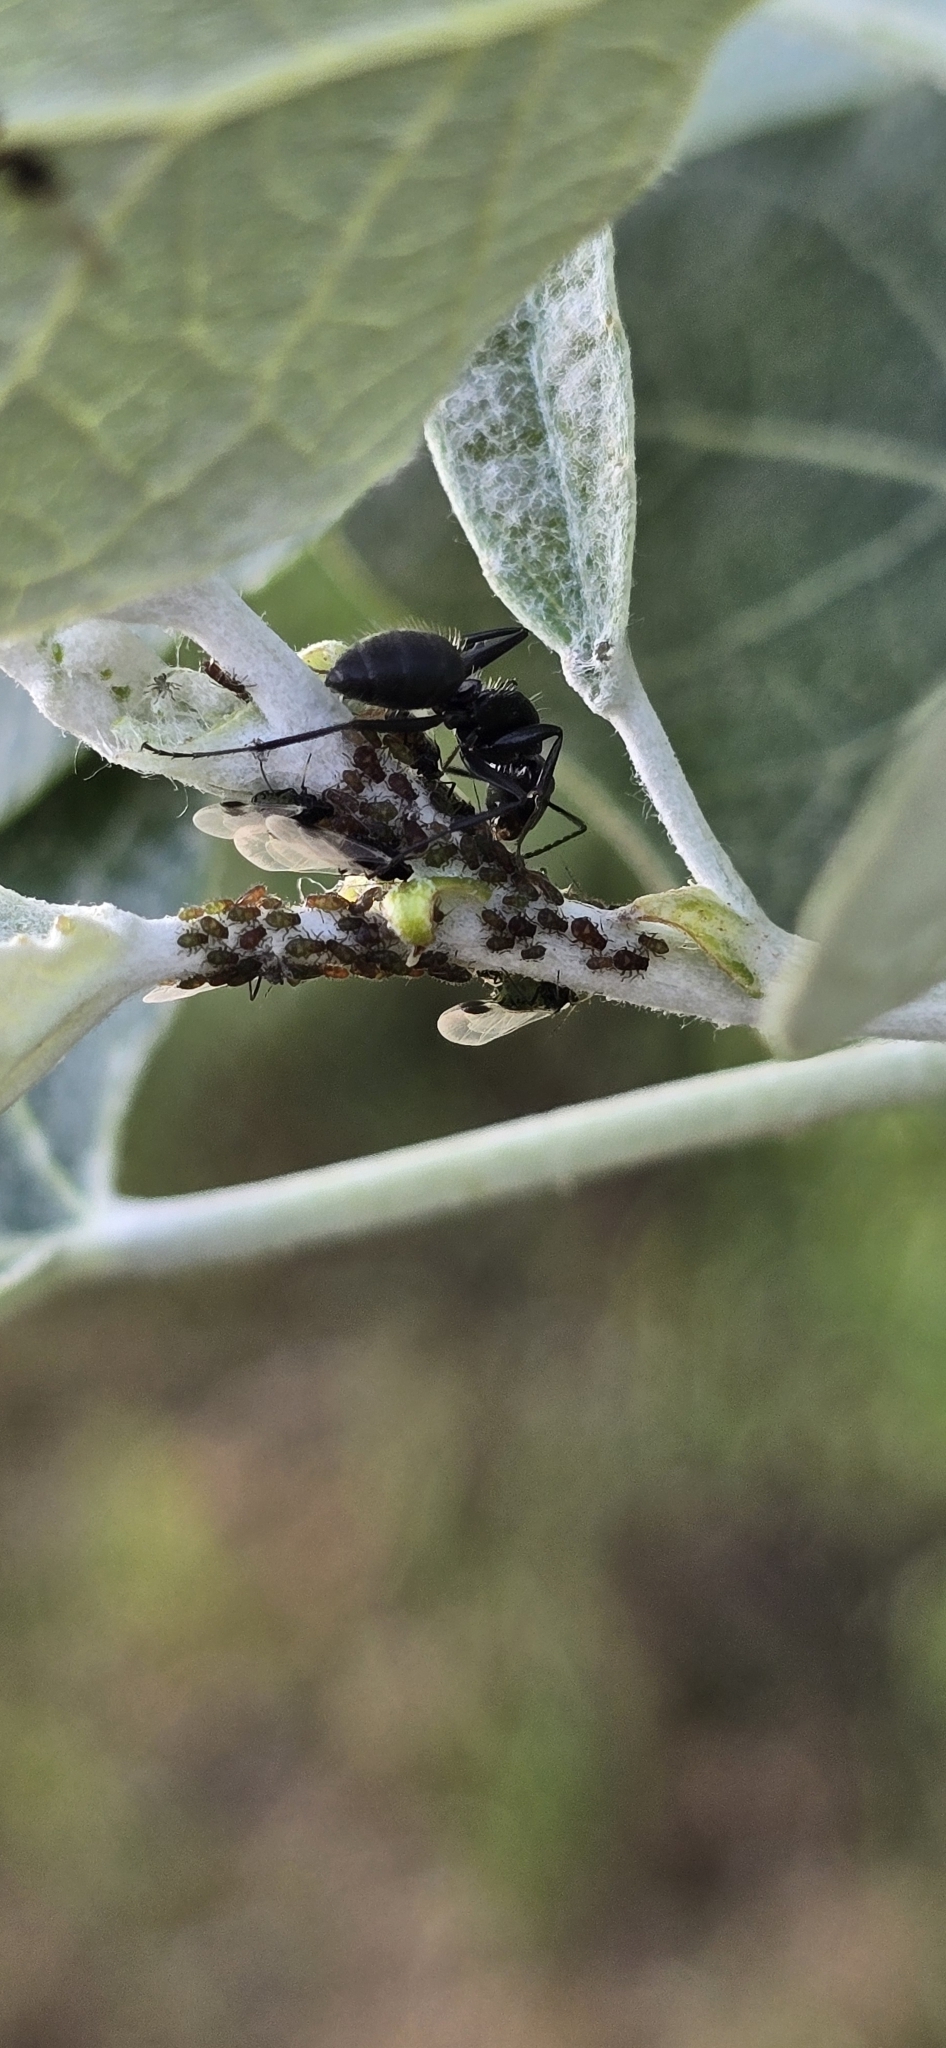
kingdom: Animalia
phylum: Arthropoda
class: Insecta
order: Hemiptera
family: Aphididae
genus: Aphis
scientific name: Aphis fabae
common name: Bean aphid
